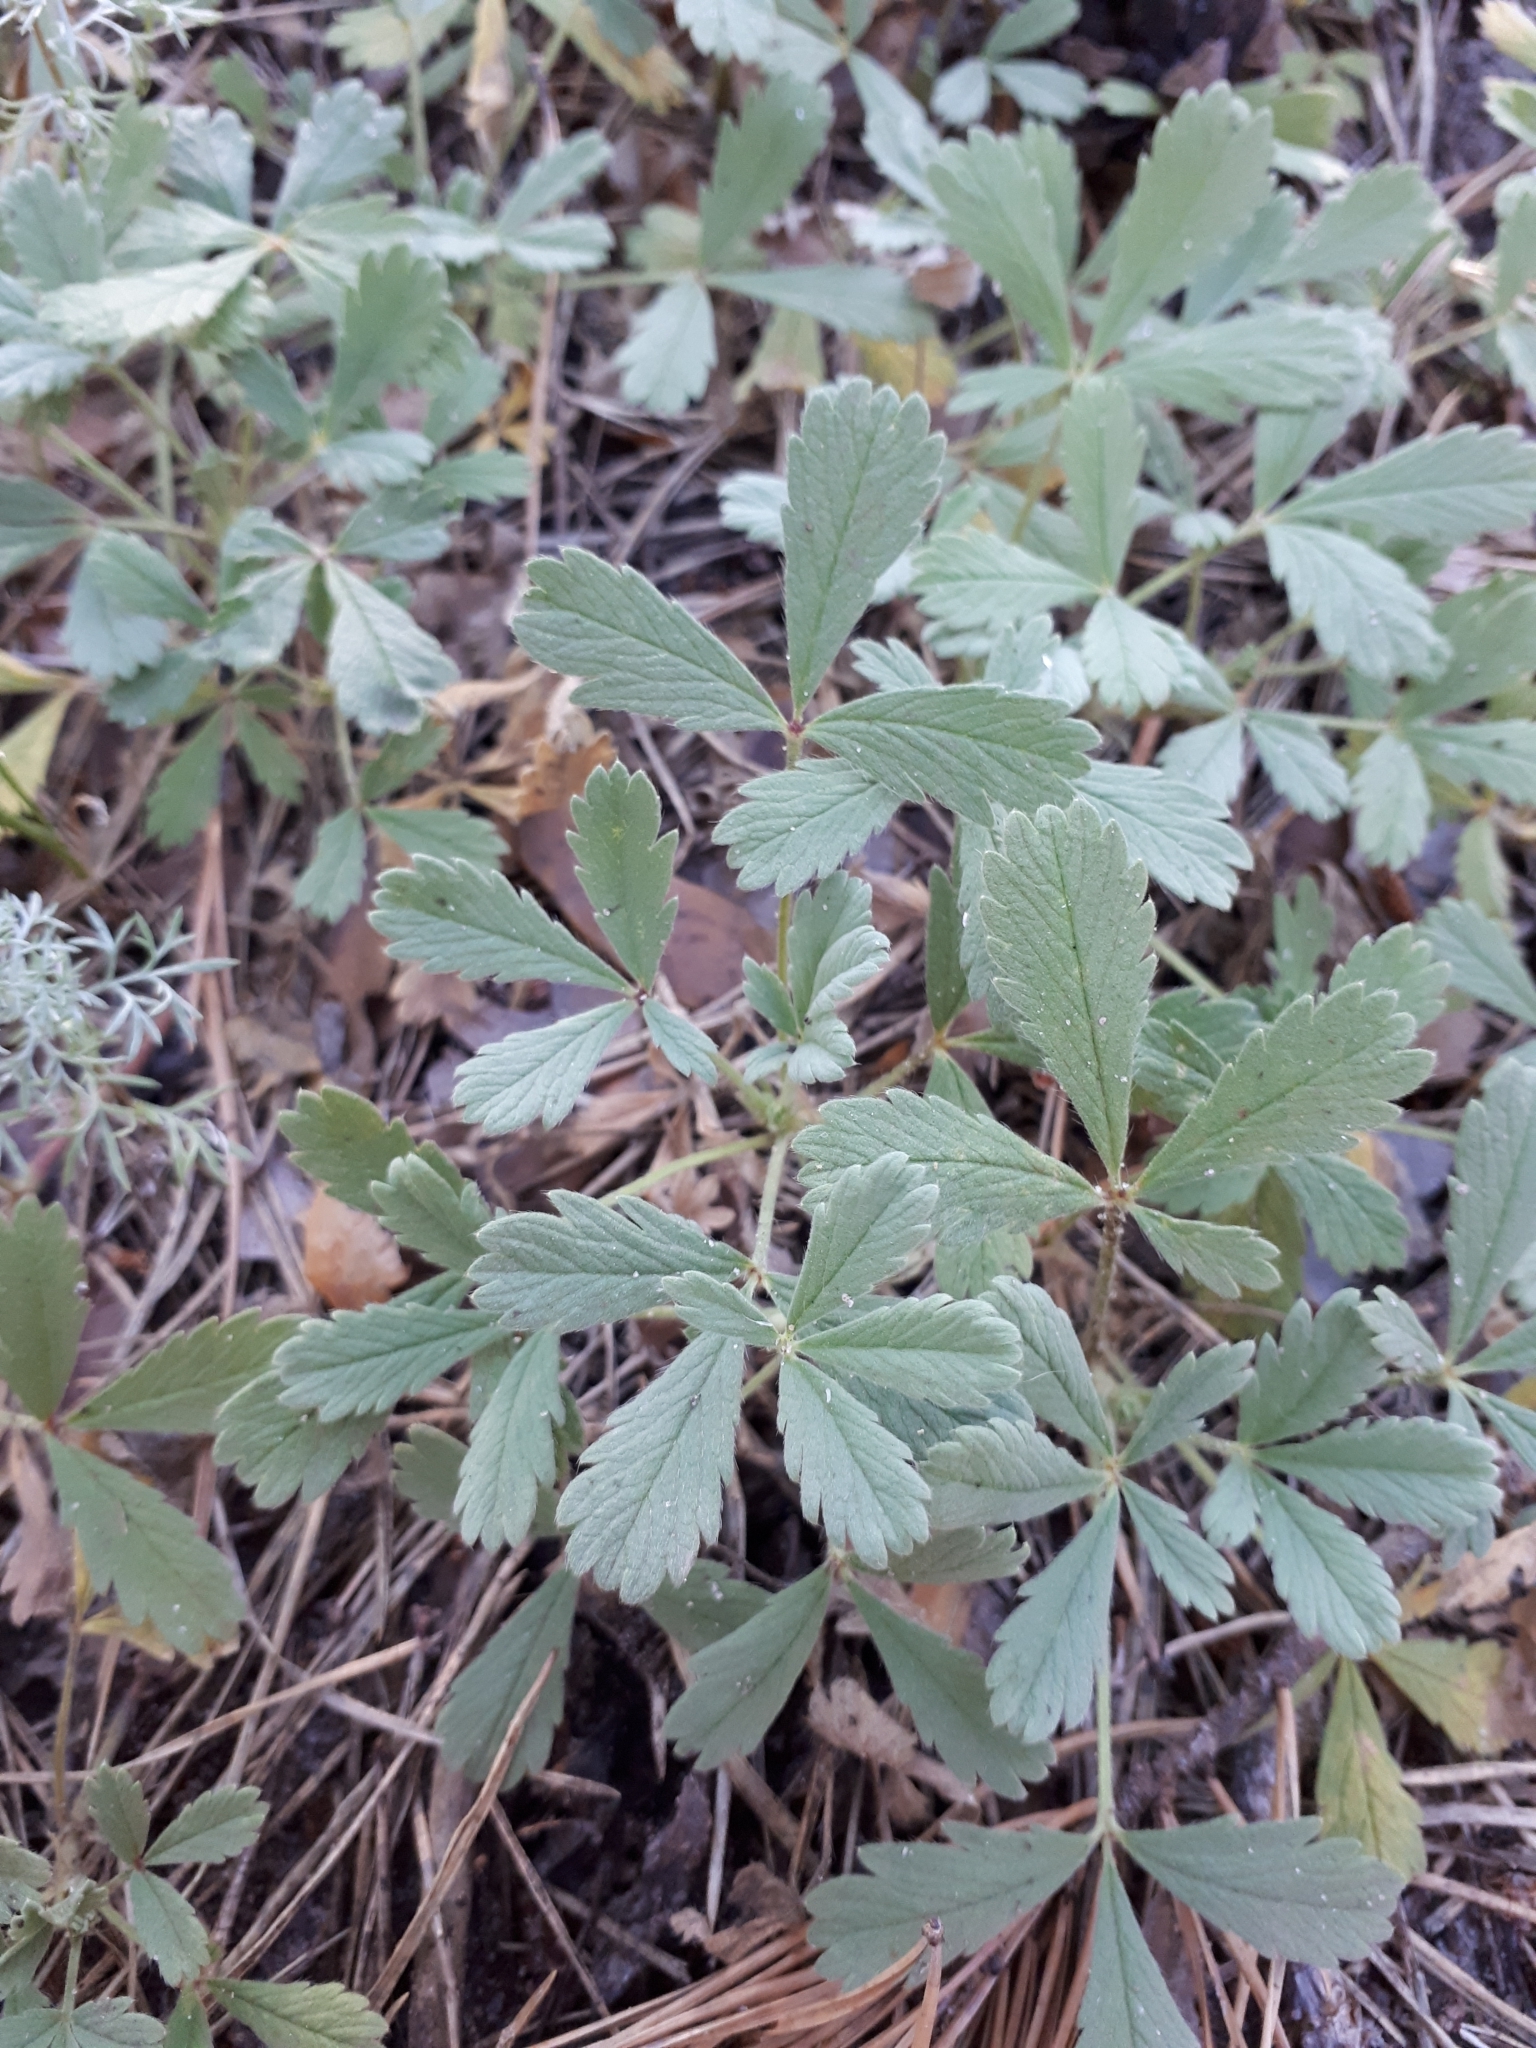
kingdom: Plantae
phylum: Tracheophyta
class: Magnoliopsida
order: Rosales
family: Rosaceae
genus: Potentilla
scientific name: Potentilla incana
